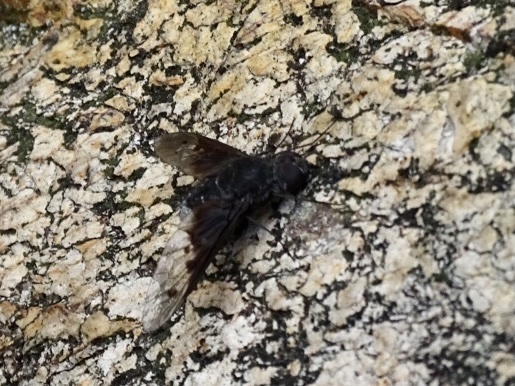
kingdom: Animalia
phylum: Arthropoda
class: Insecta
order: Diptera
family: Bombyliidae
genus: Anthrax
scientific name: Anthrax aygulus
